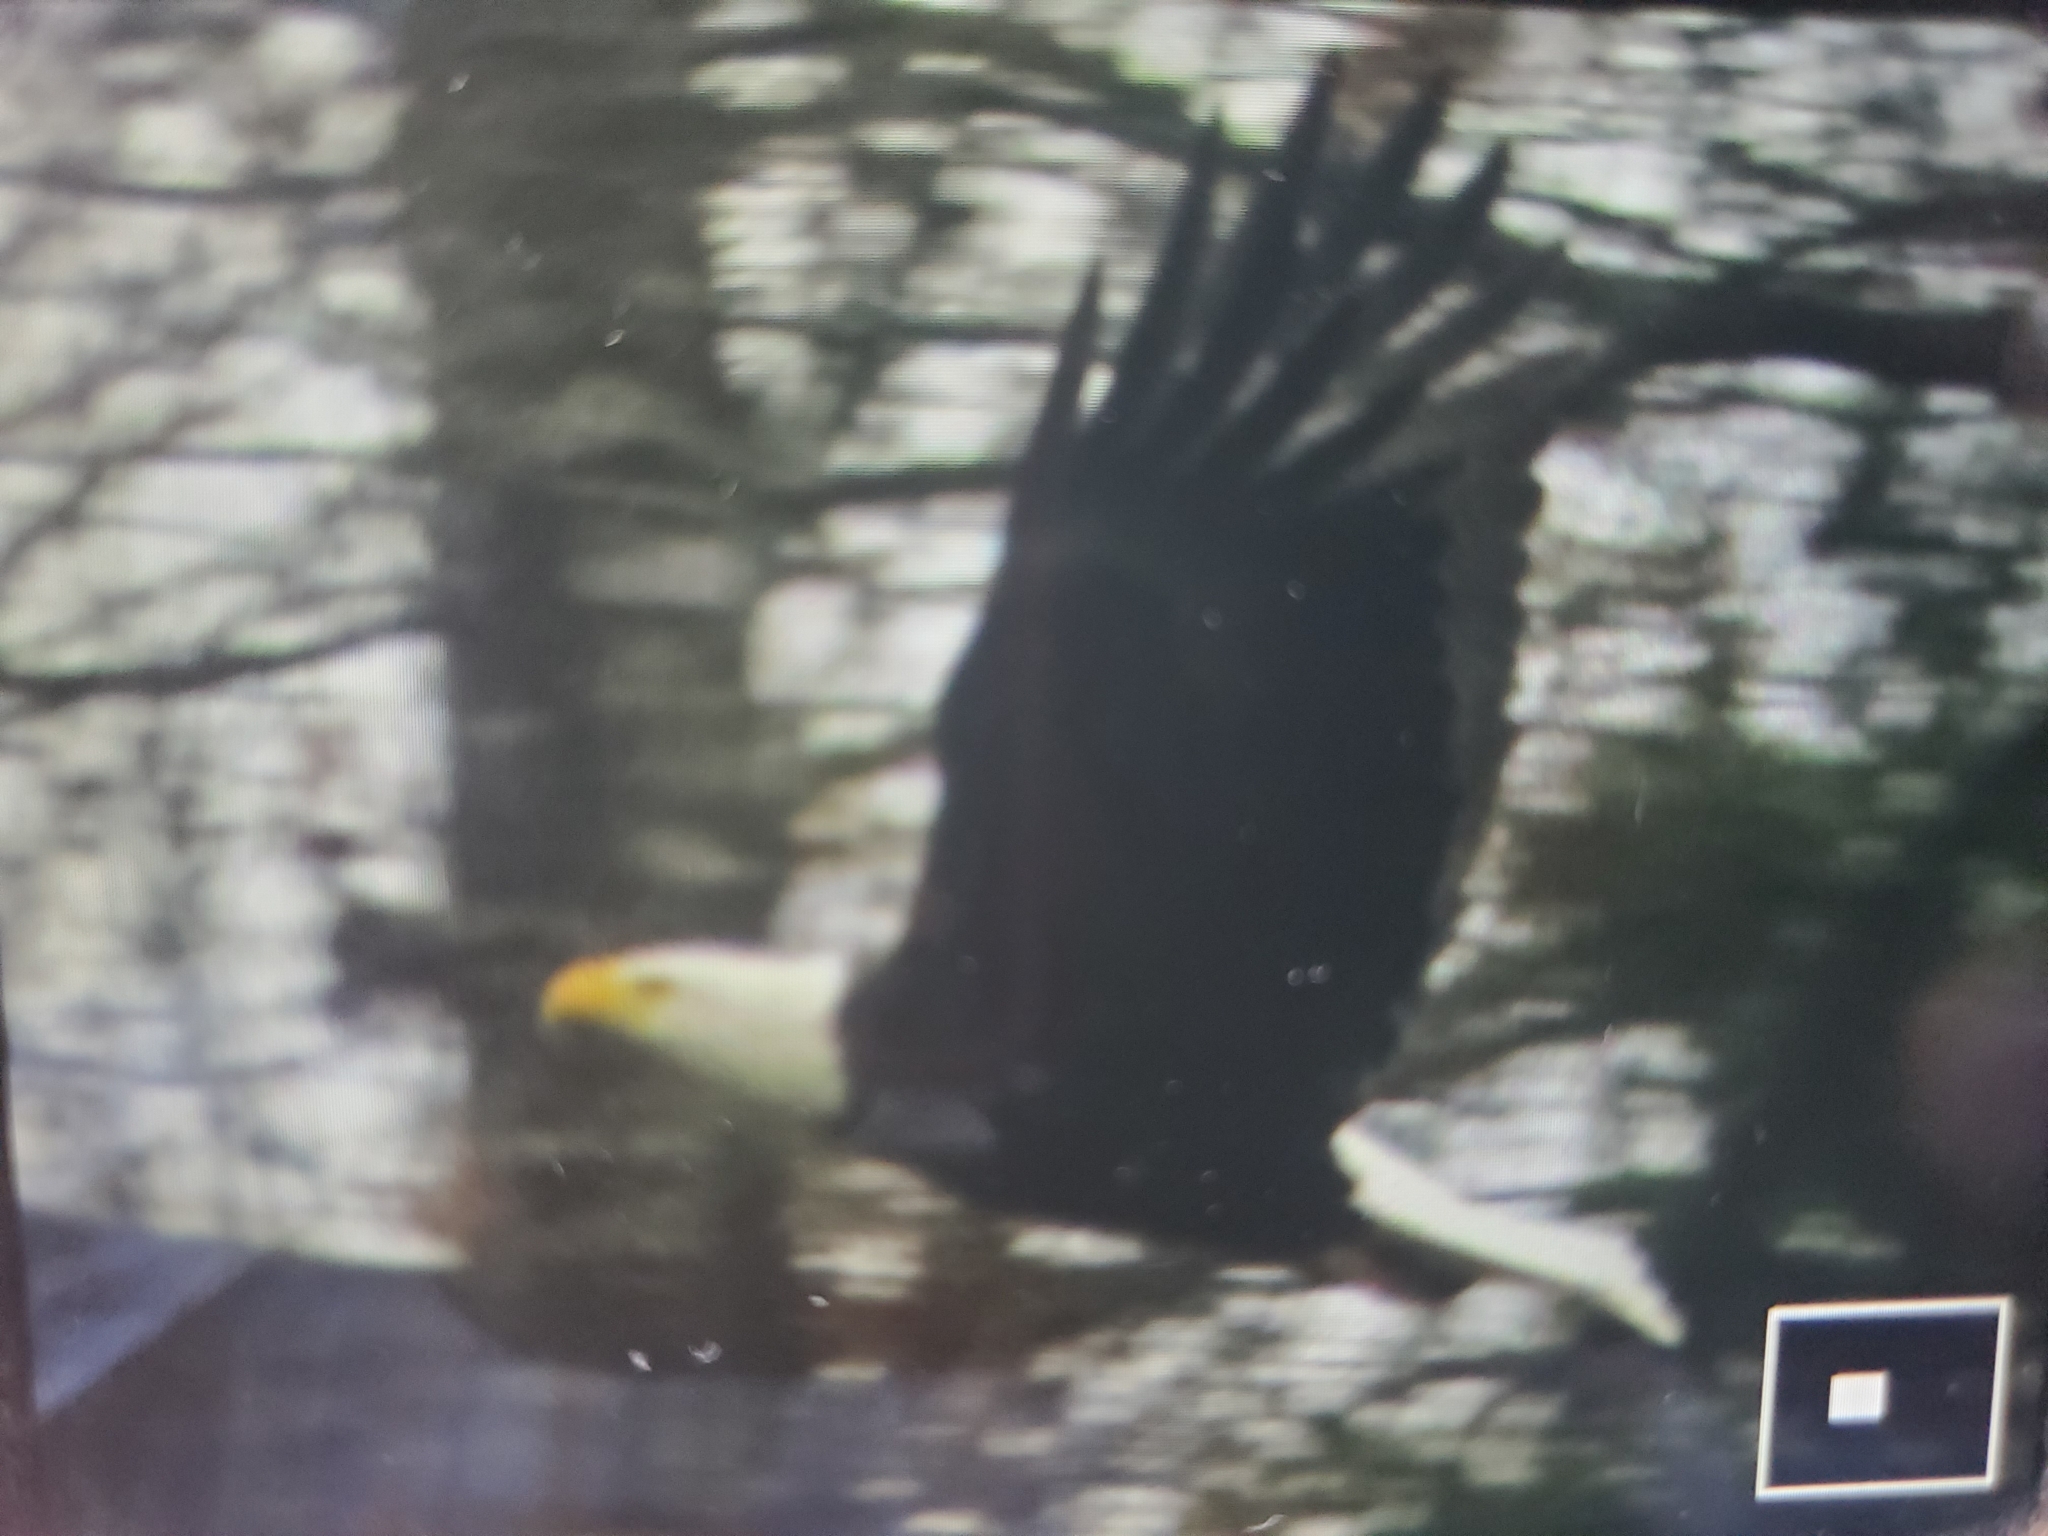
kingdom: Animalia
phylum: Chordata
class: Aves
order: Accipitriformes
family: Accipitridae
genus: Haliaeetus
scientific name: Haliaeetus leucocephalus
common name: Bald eagle
